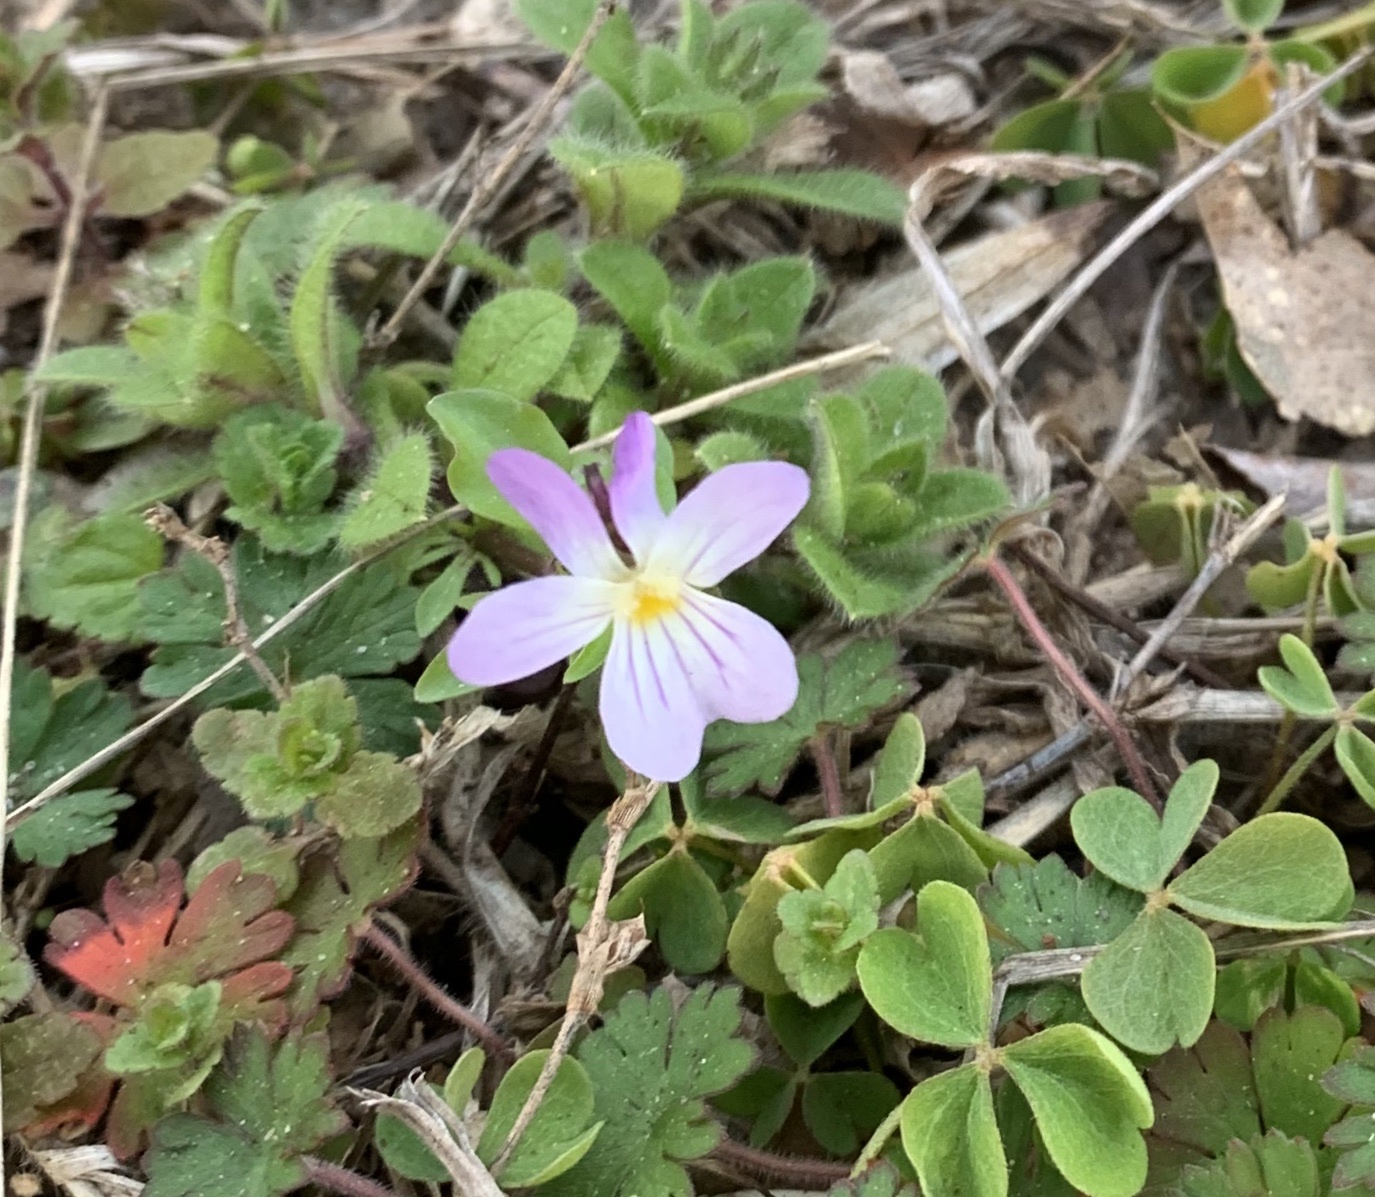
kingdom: Plantae
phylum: Tracheophyta
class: Magnoliopsida
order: Malpighiales
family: Violaceae
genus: Viola
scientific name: Viola rafinesquei
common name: American field pansy
